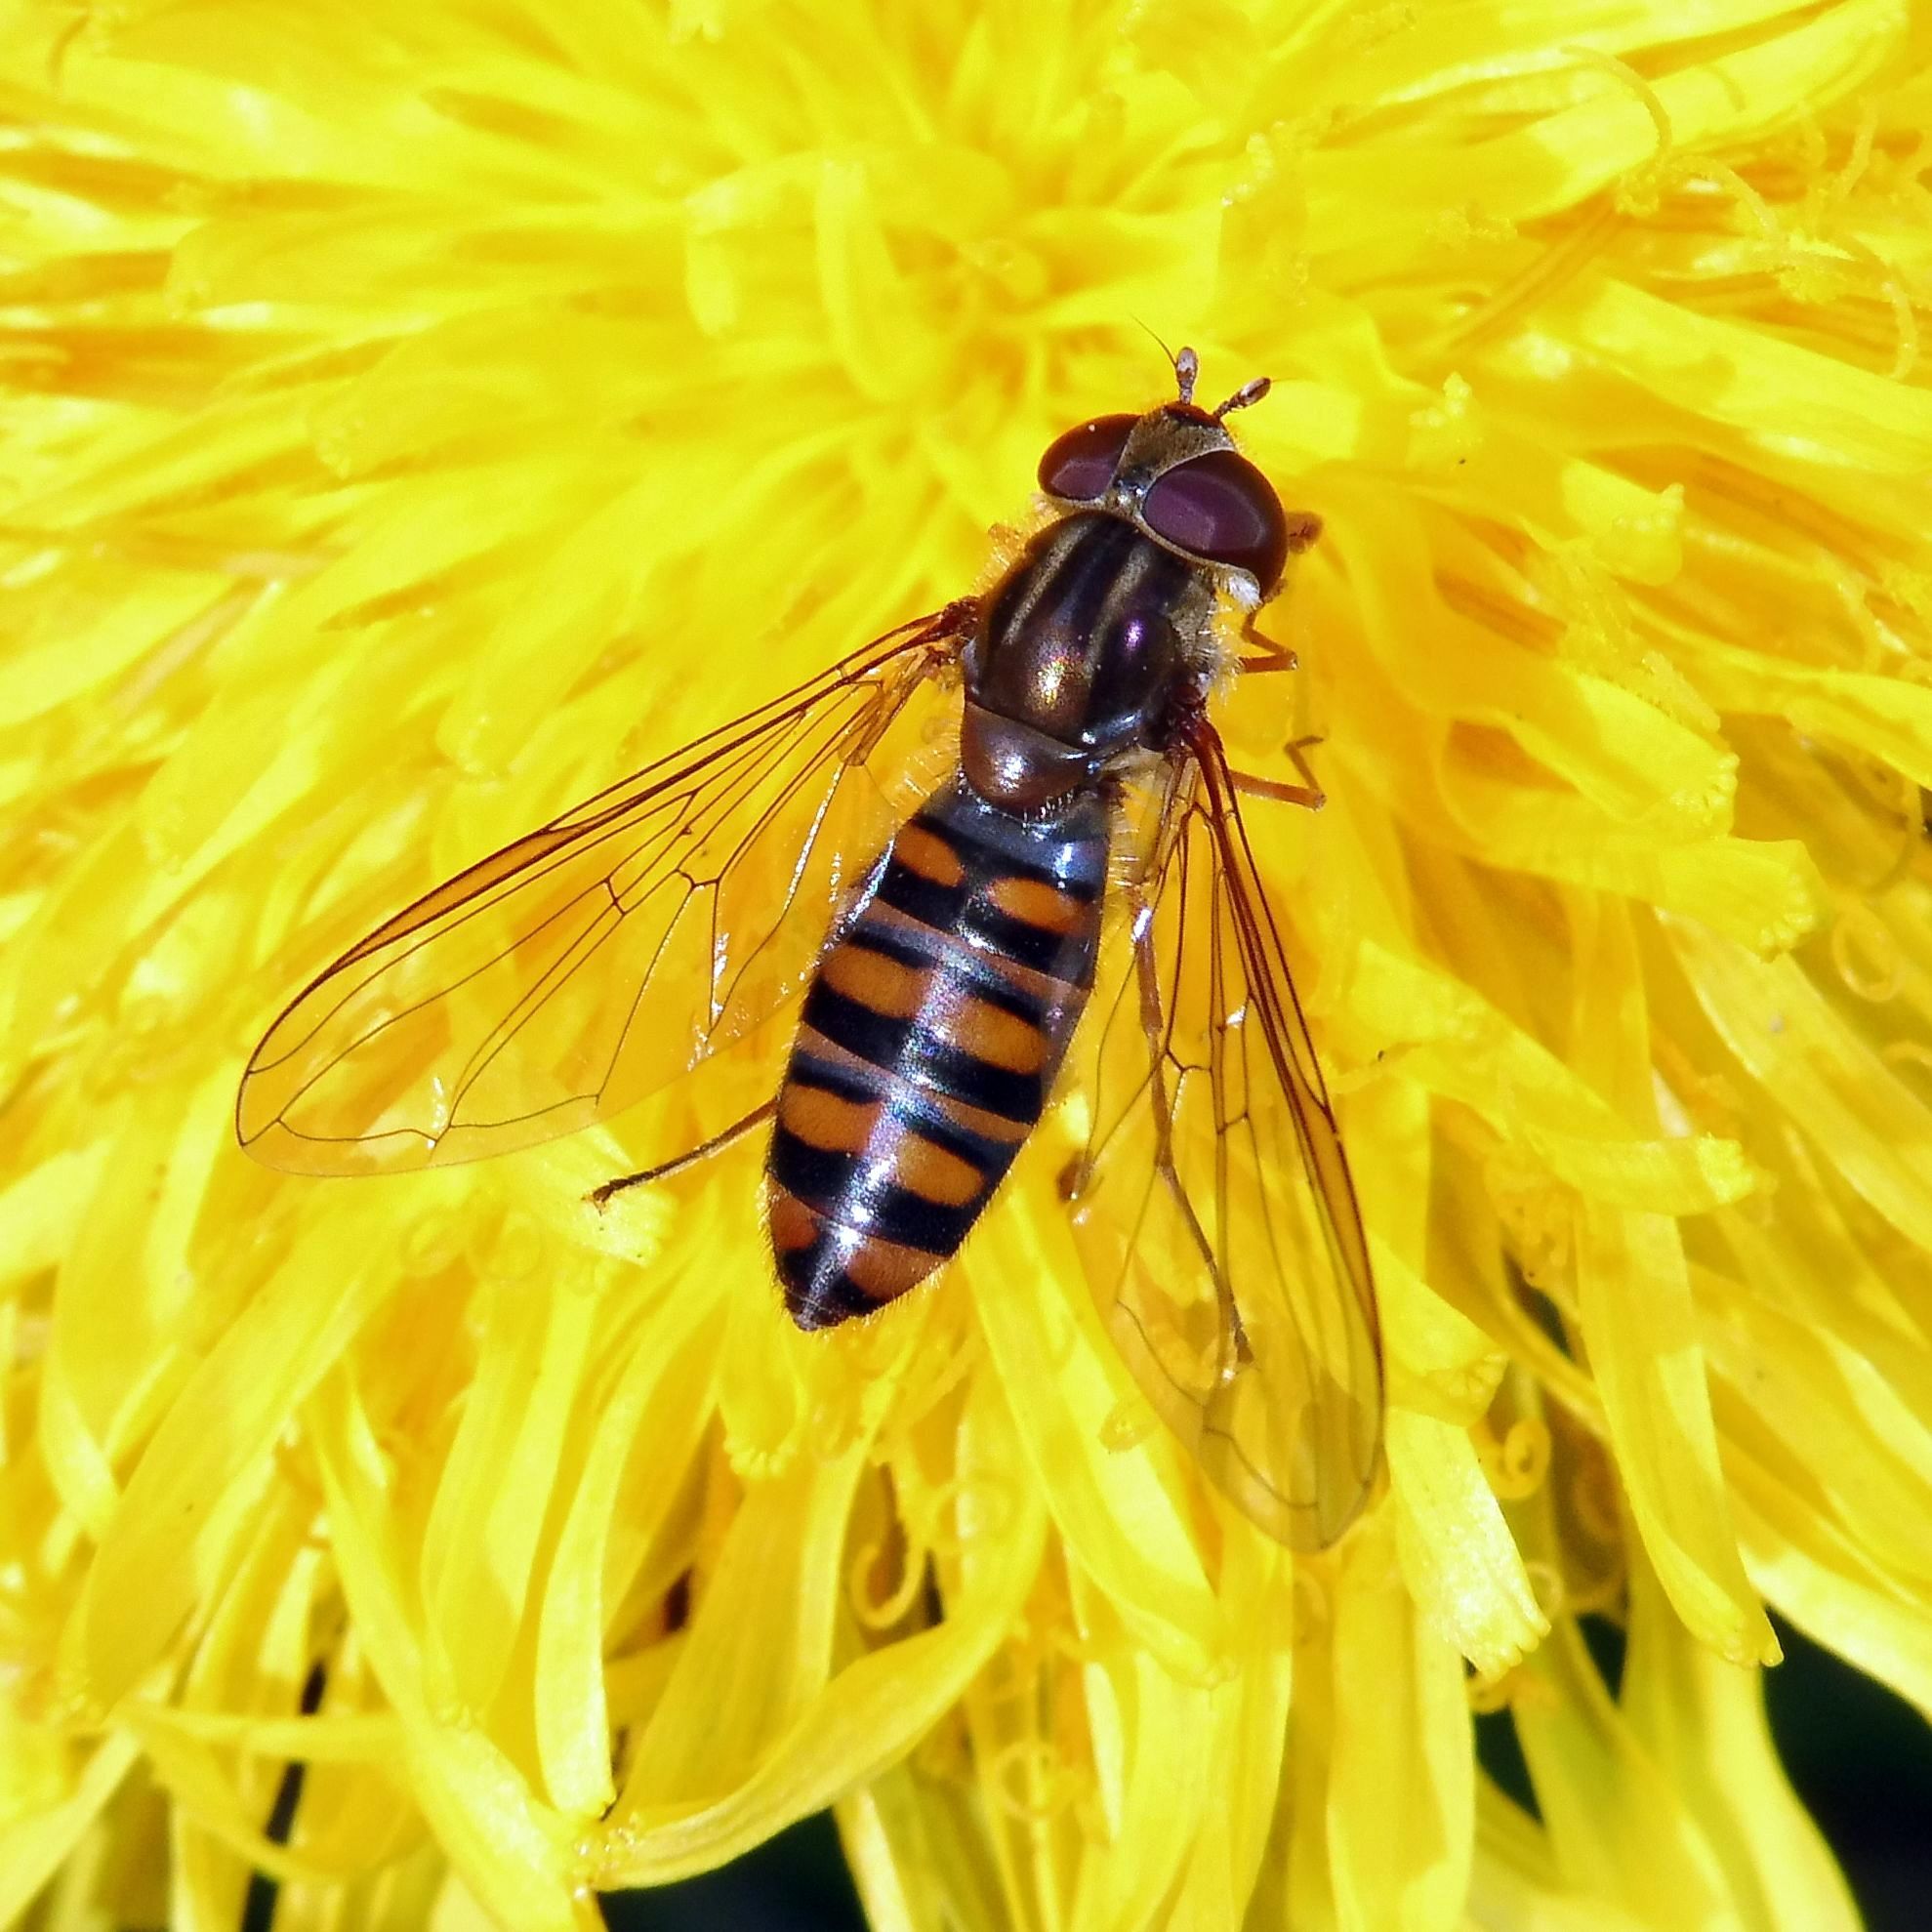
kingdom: Animalia
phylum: Arthropoda
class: Insecta
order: Diptera
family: Syrphidae
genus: Episyrphus
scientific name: Episyrphus balteatus
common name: Marmalade hoverfly
